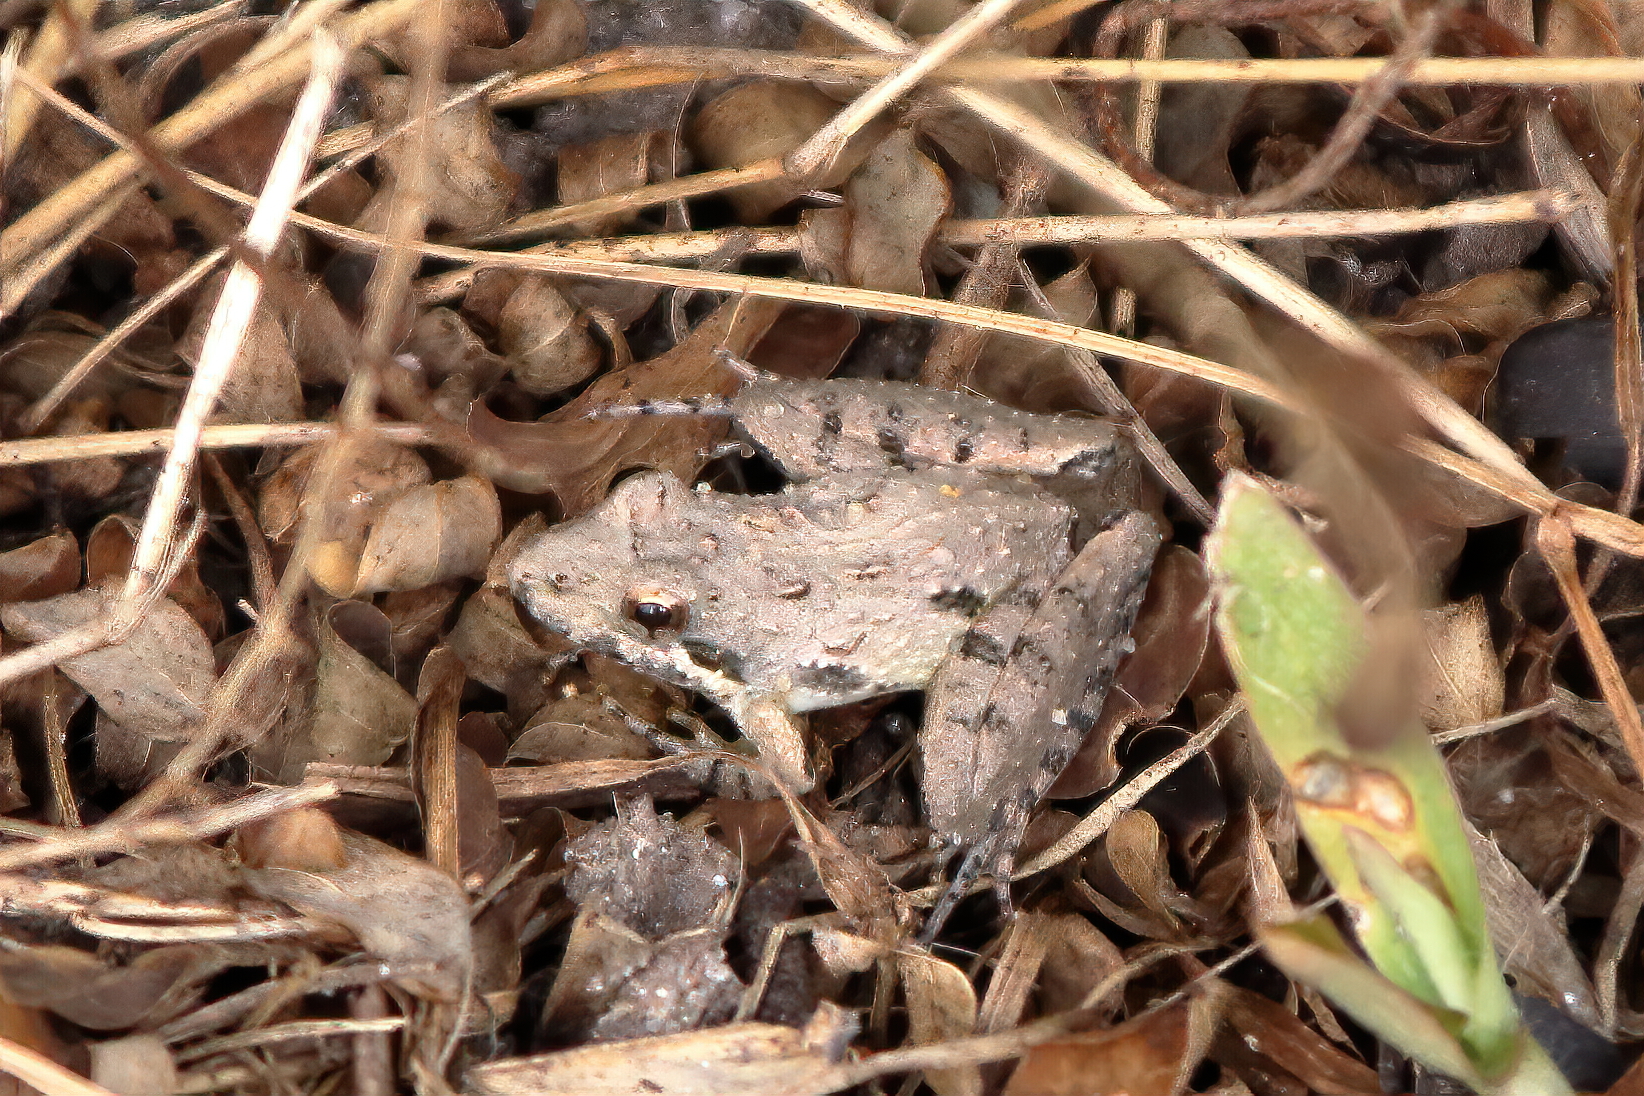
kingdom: Animalia
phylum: Chordata
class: Amphibia
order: Anura
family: Hylidae
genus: Acris
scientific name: Acris gryllus
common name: Southern cricket frog
